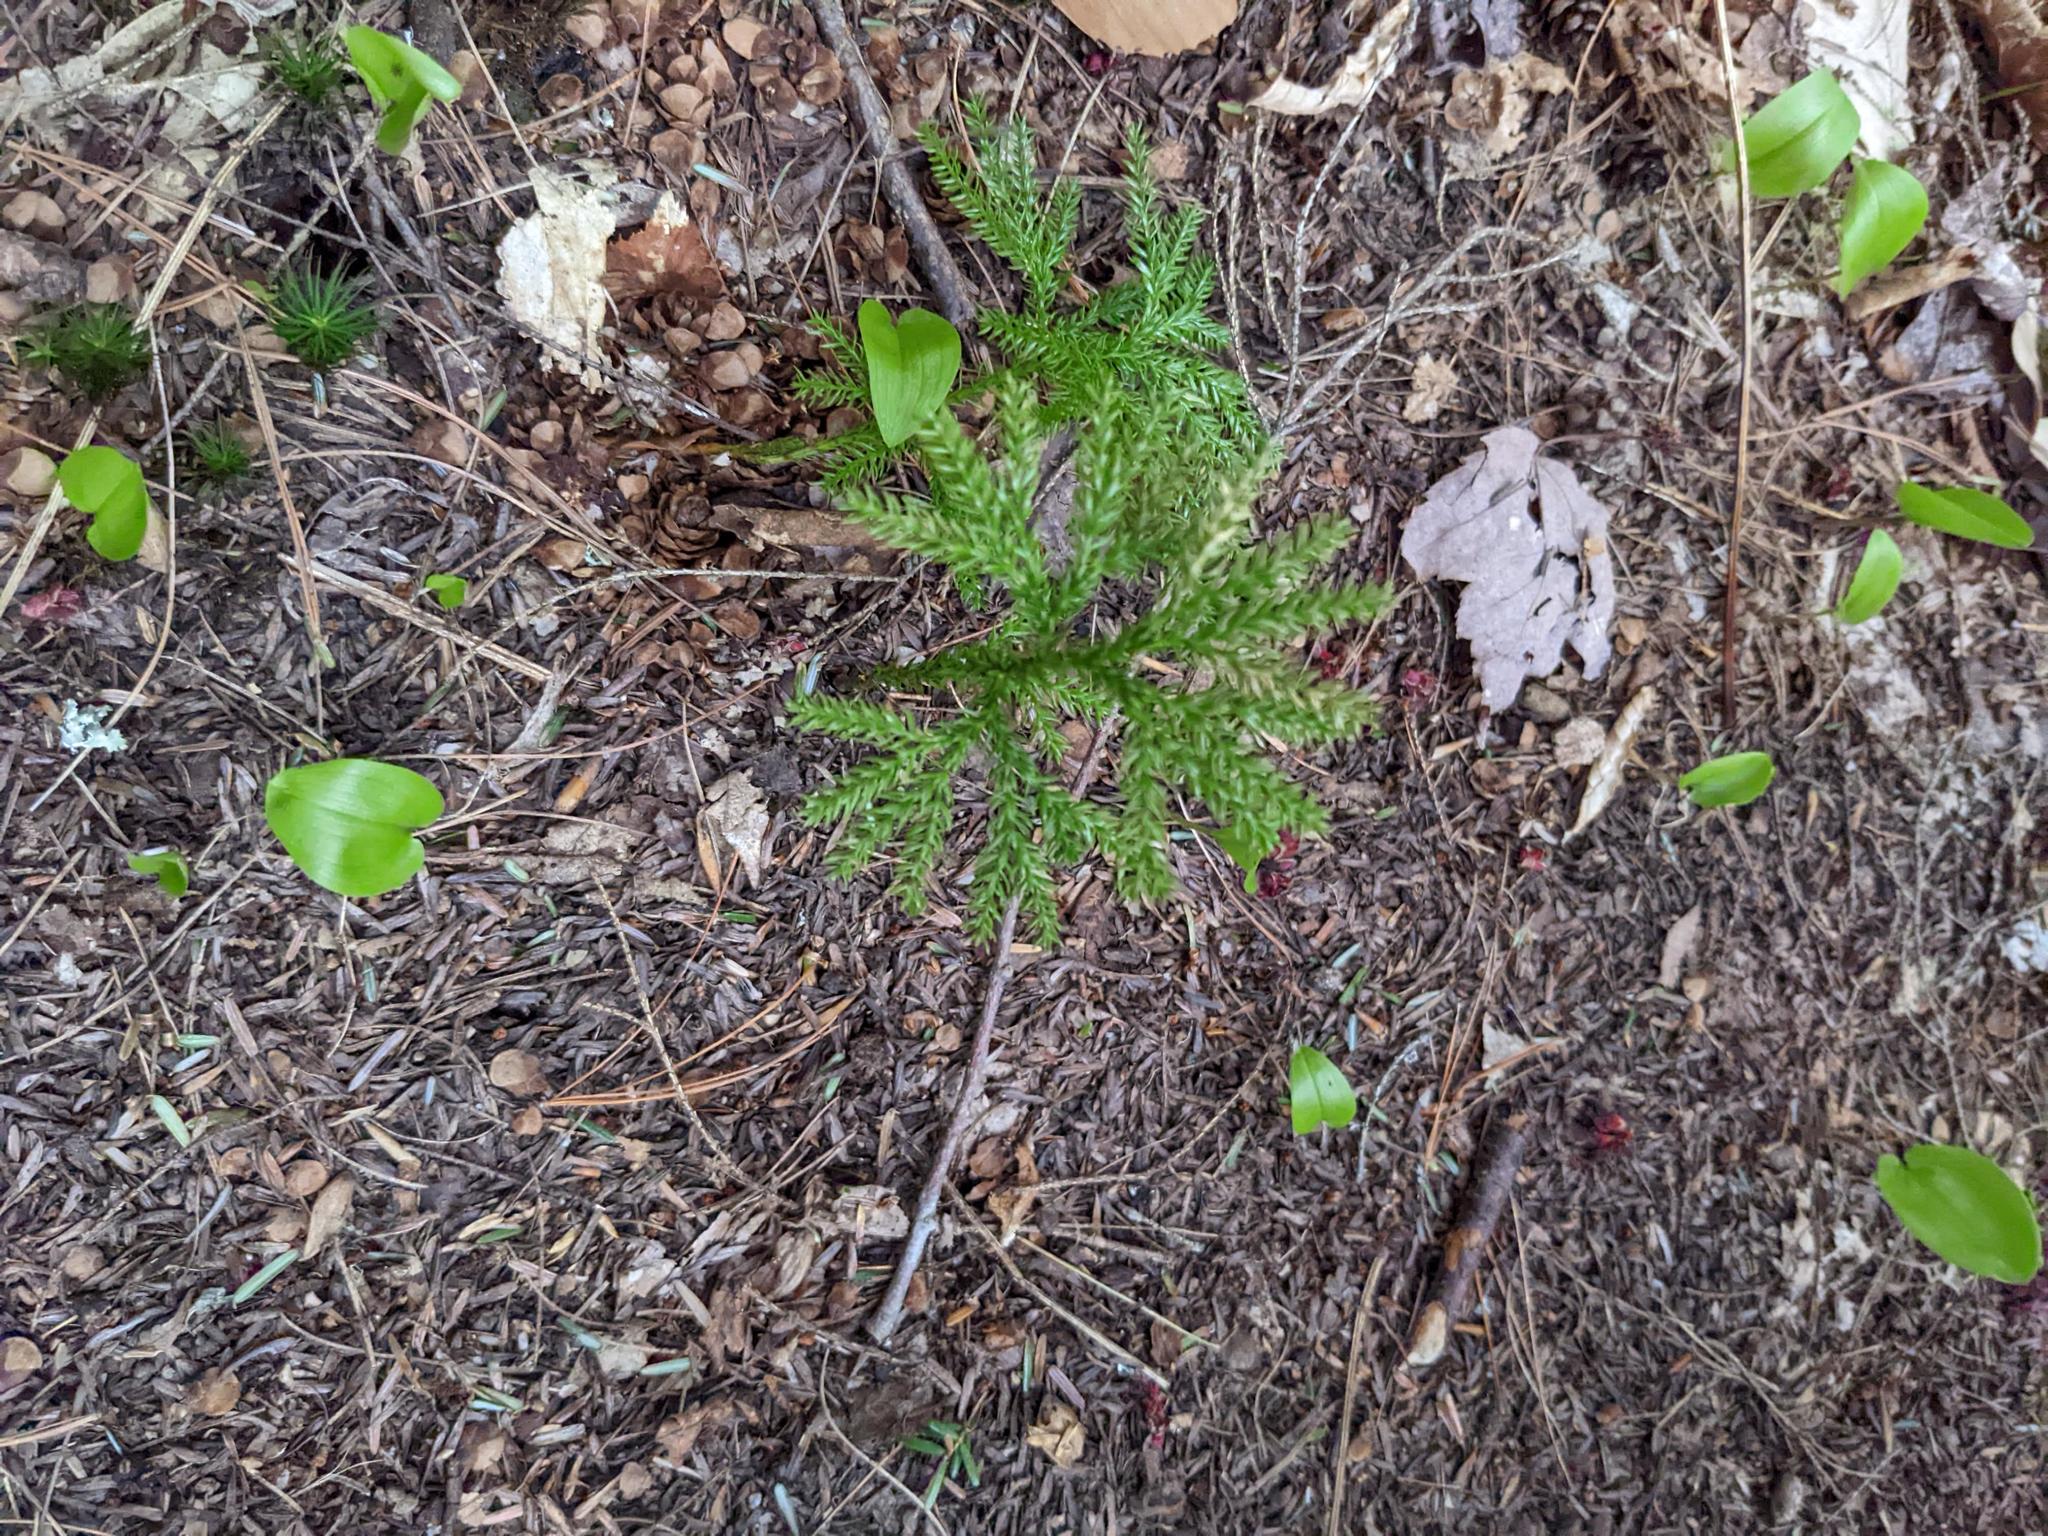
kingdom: Plantae
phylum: Tracheophyta
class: Liliopsida
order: Asparagales
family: Asparagaceae
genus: Maianthemum
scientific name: Maianthemum canadense
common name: False lily-of-the-valley
